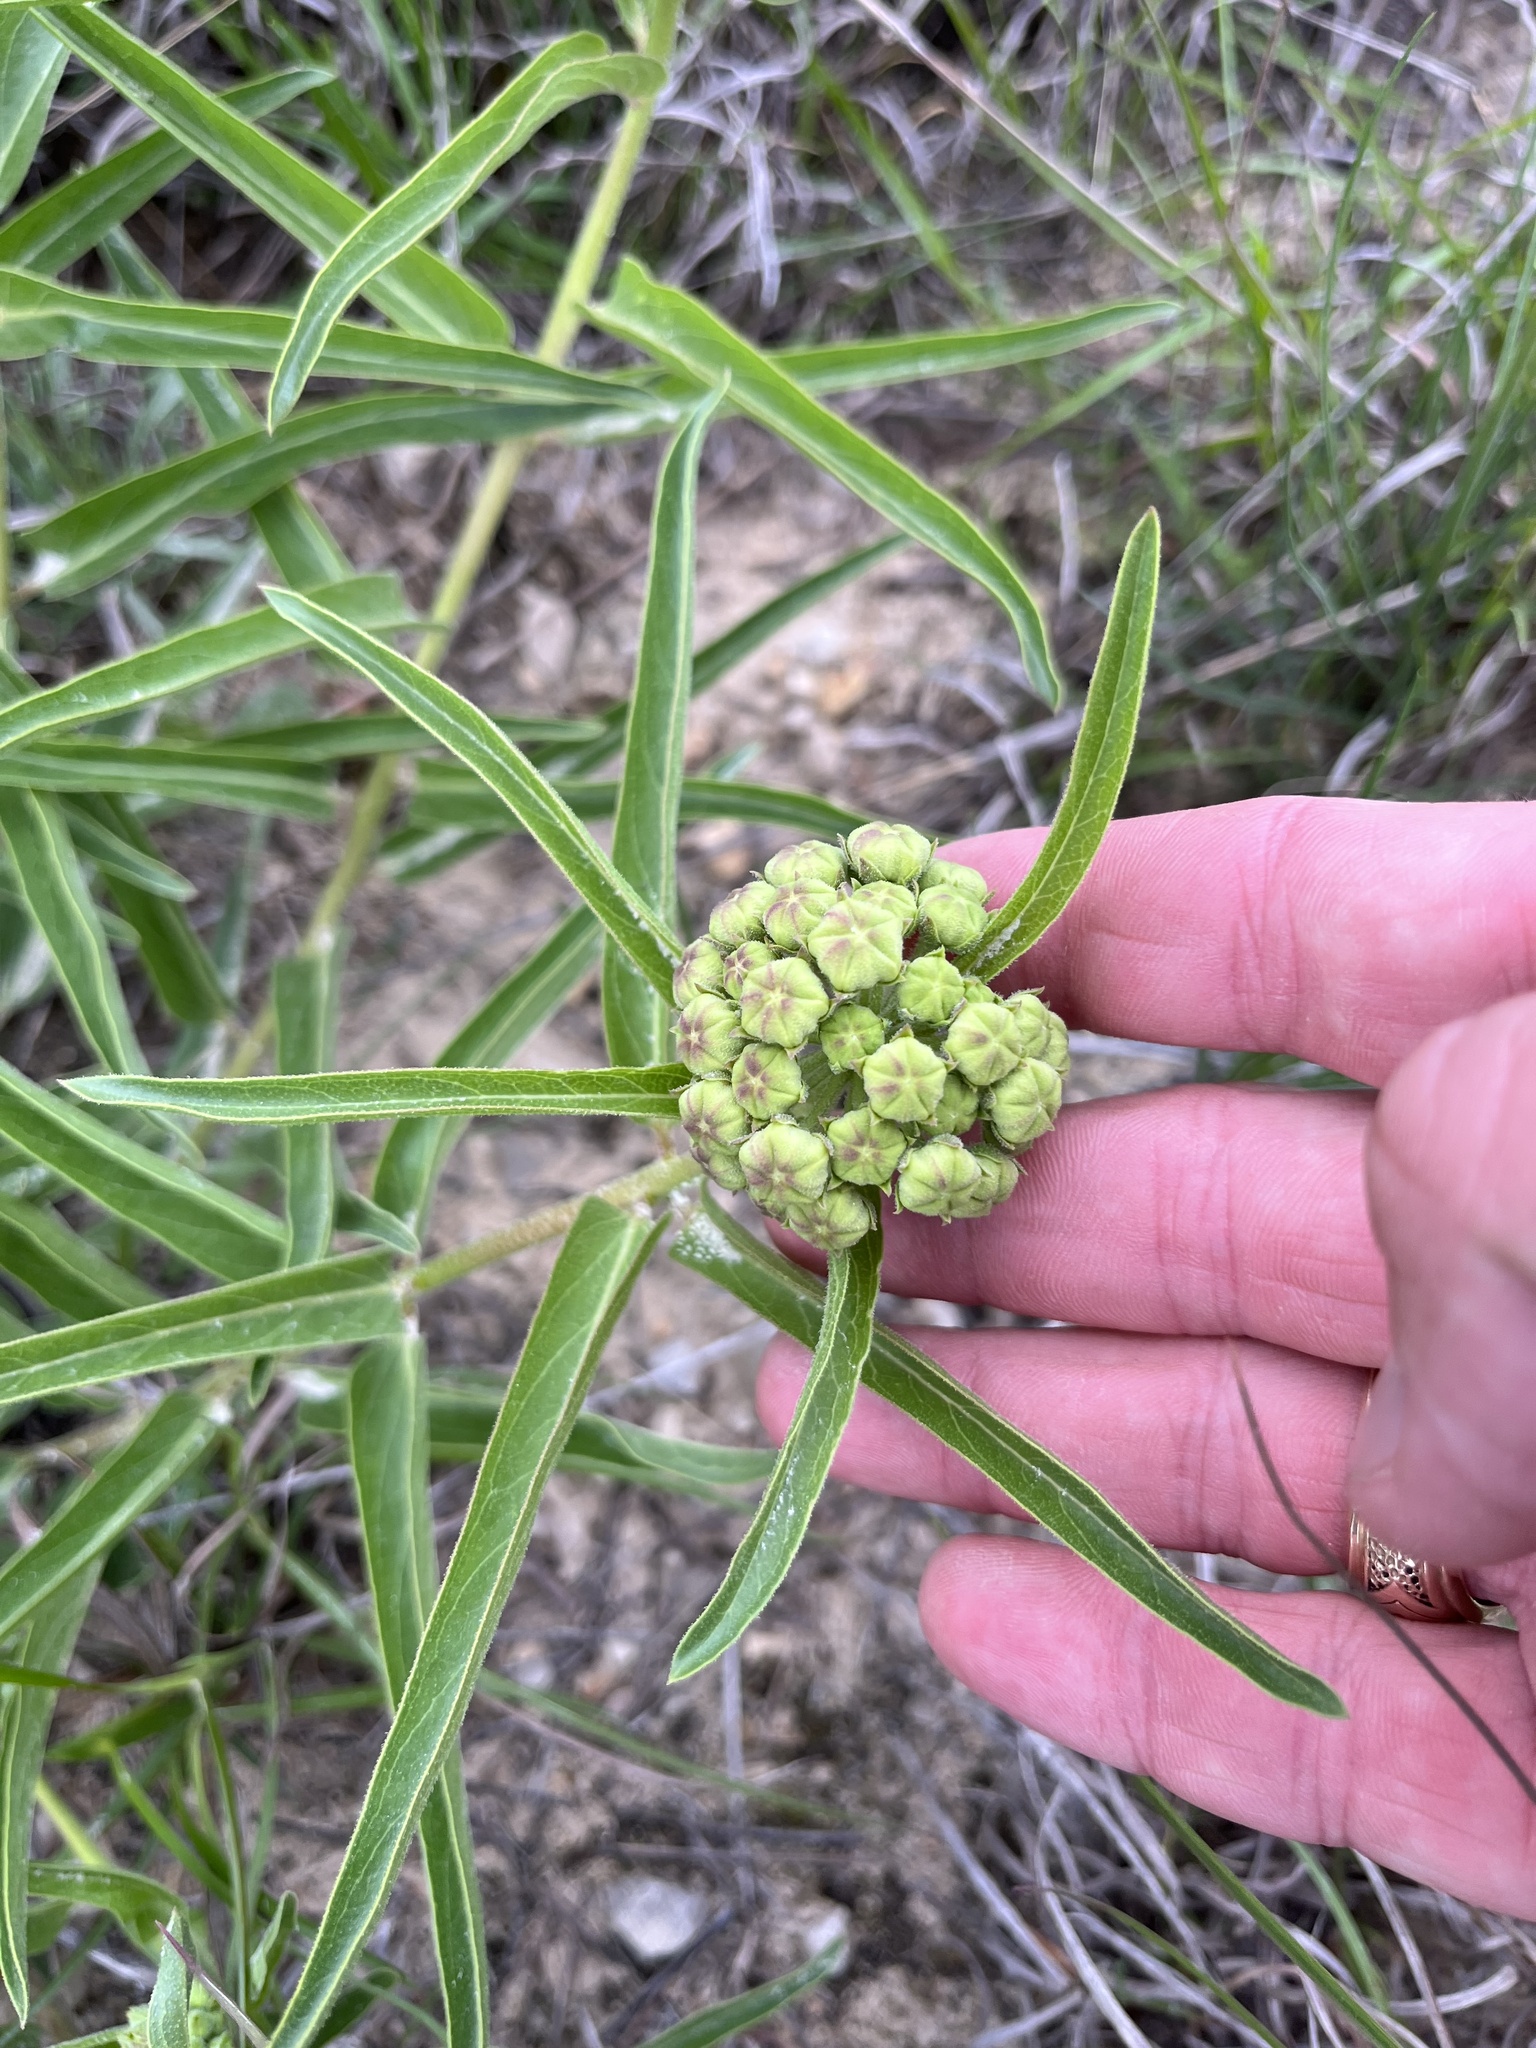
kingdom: Plantae
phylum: Tracheophyta
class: Magnoliopsida
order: Gentianales
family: Apocynaceae
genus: Asclepias
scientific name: Asclepias asperula
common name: Antelope horns
